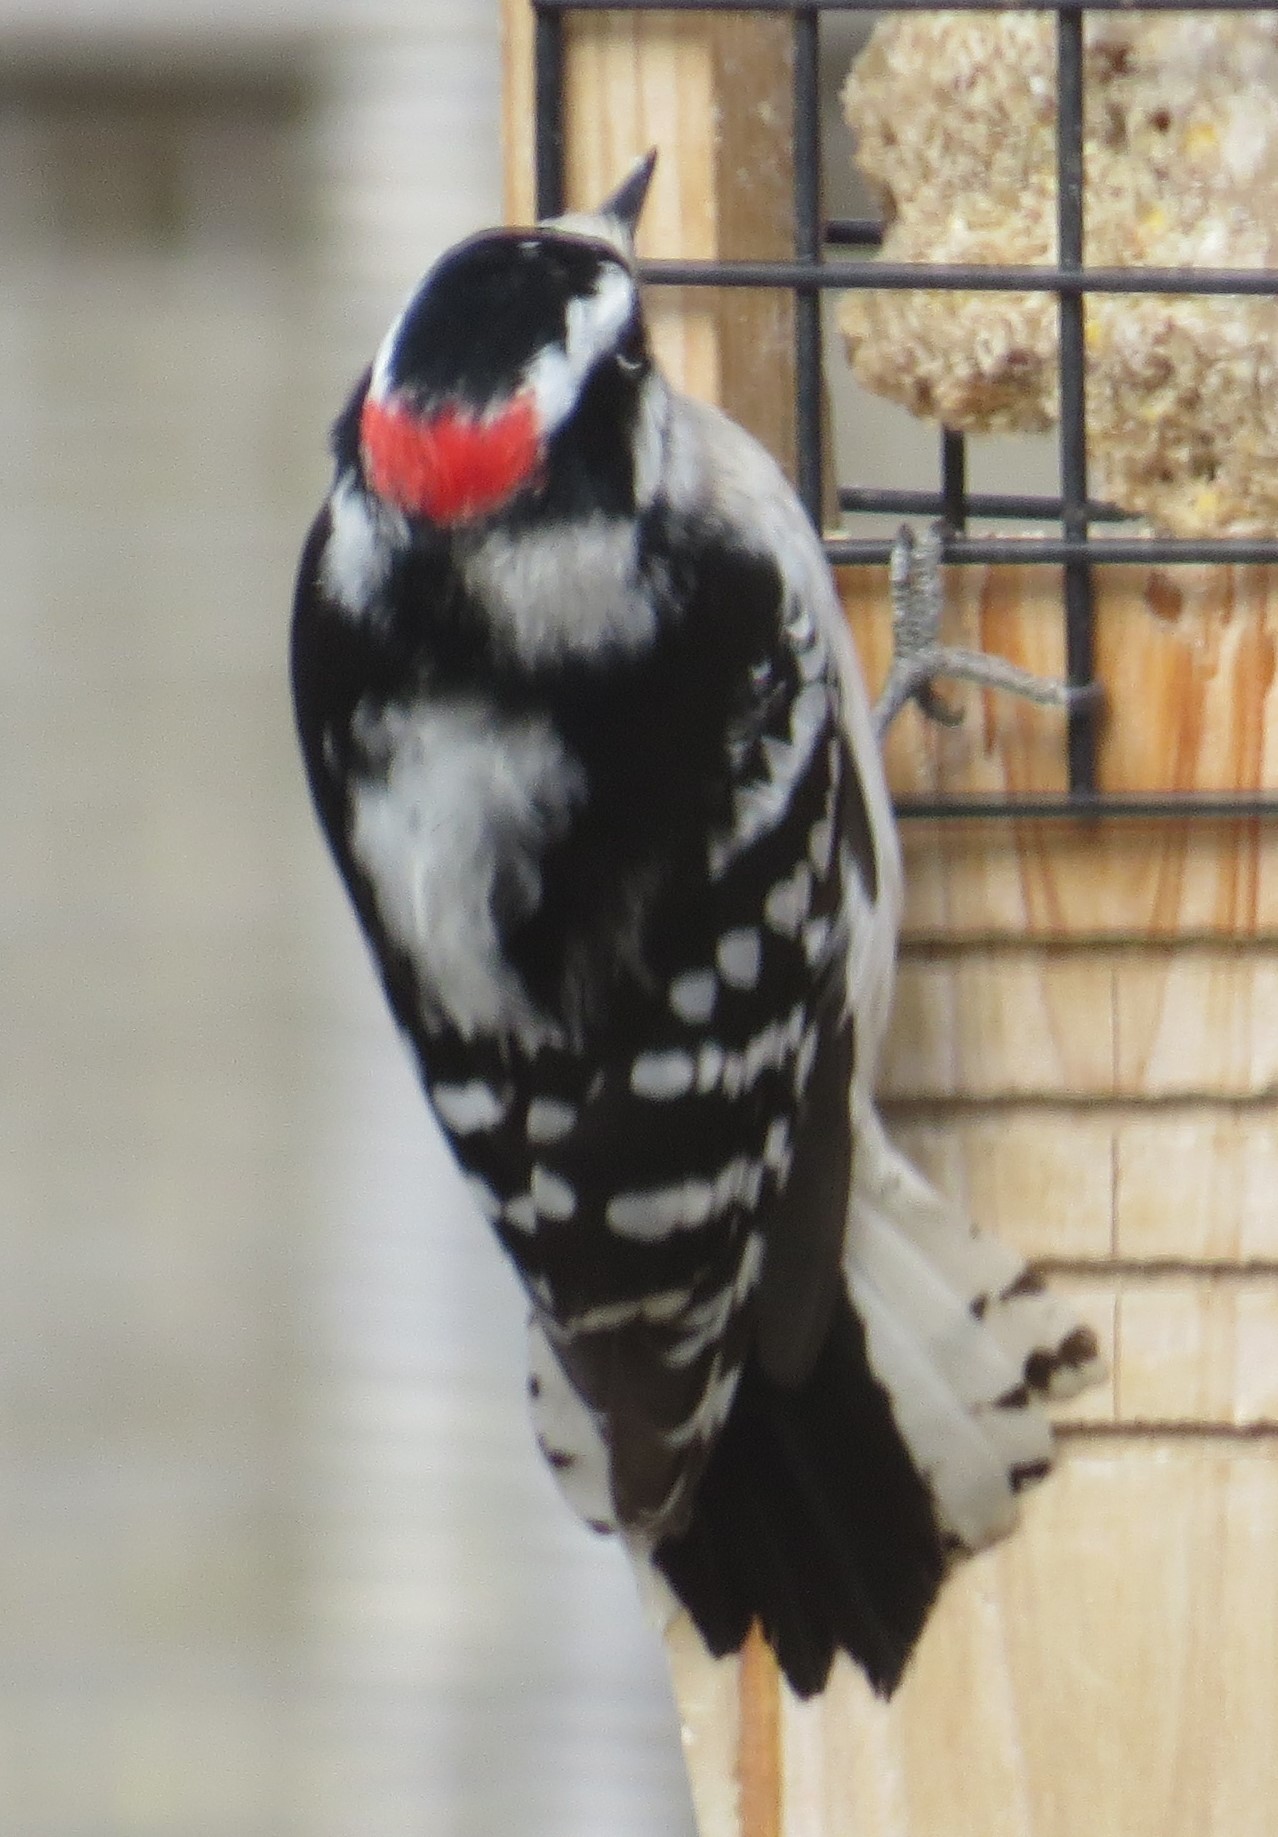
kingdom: Animalia
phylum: Chordata
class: Aves
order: Piciformes
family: Picidae
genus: Dryobates
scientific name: Dryobates pubescens
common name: Downy woodpecker
